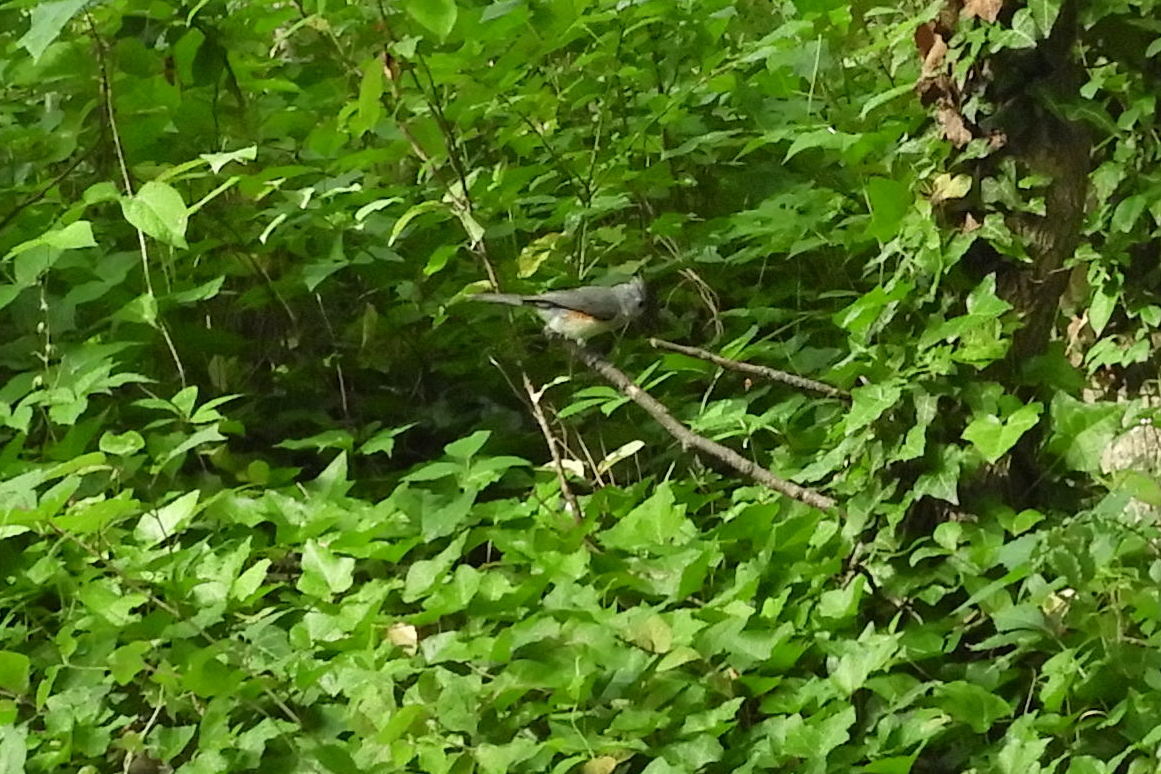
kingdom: Animalia
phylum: Chordata
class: Aves
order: Passeriformes
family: Paridae
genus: Baeolophus
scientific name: Baeolophus bicolor
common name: Tufted titmouse
